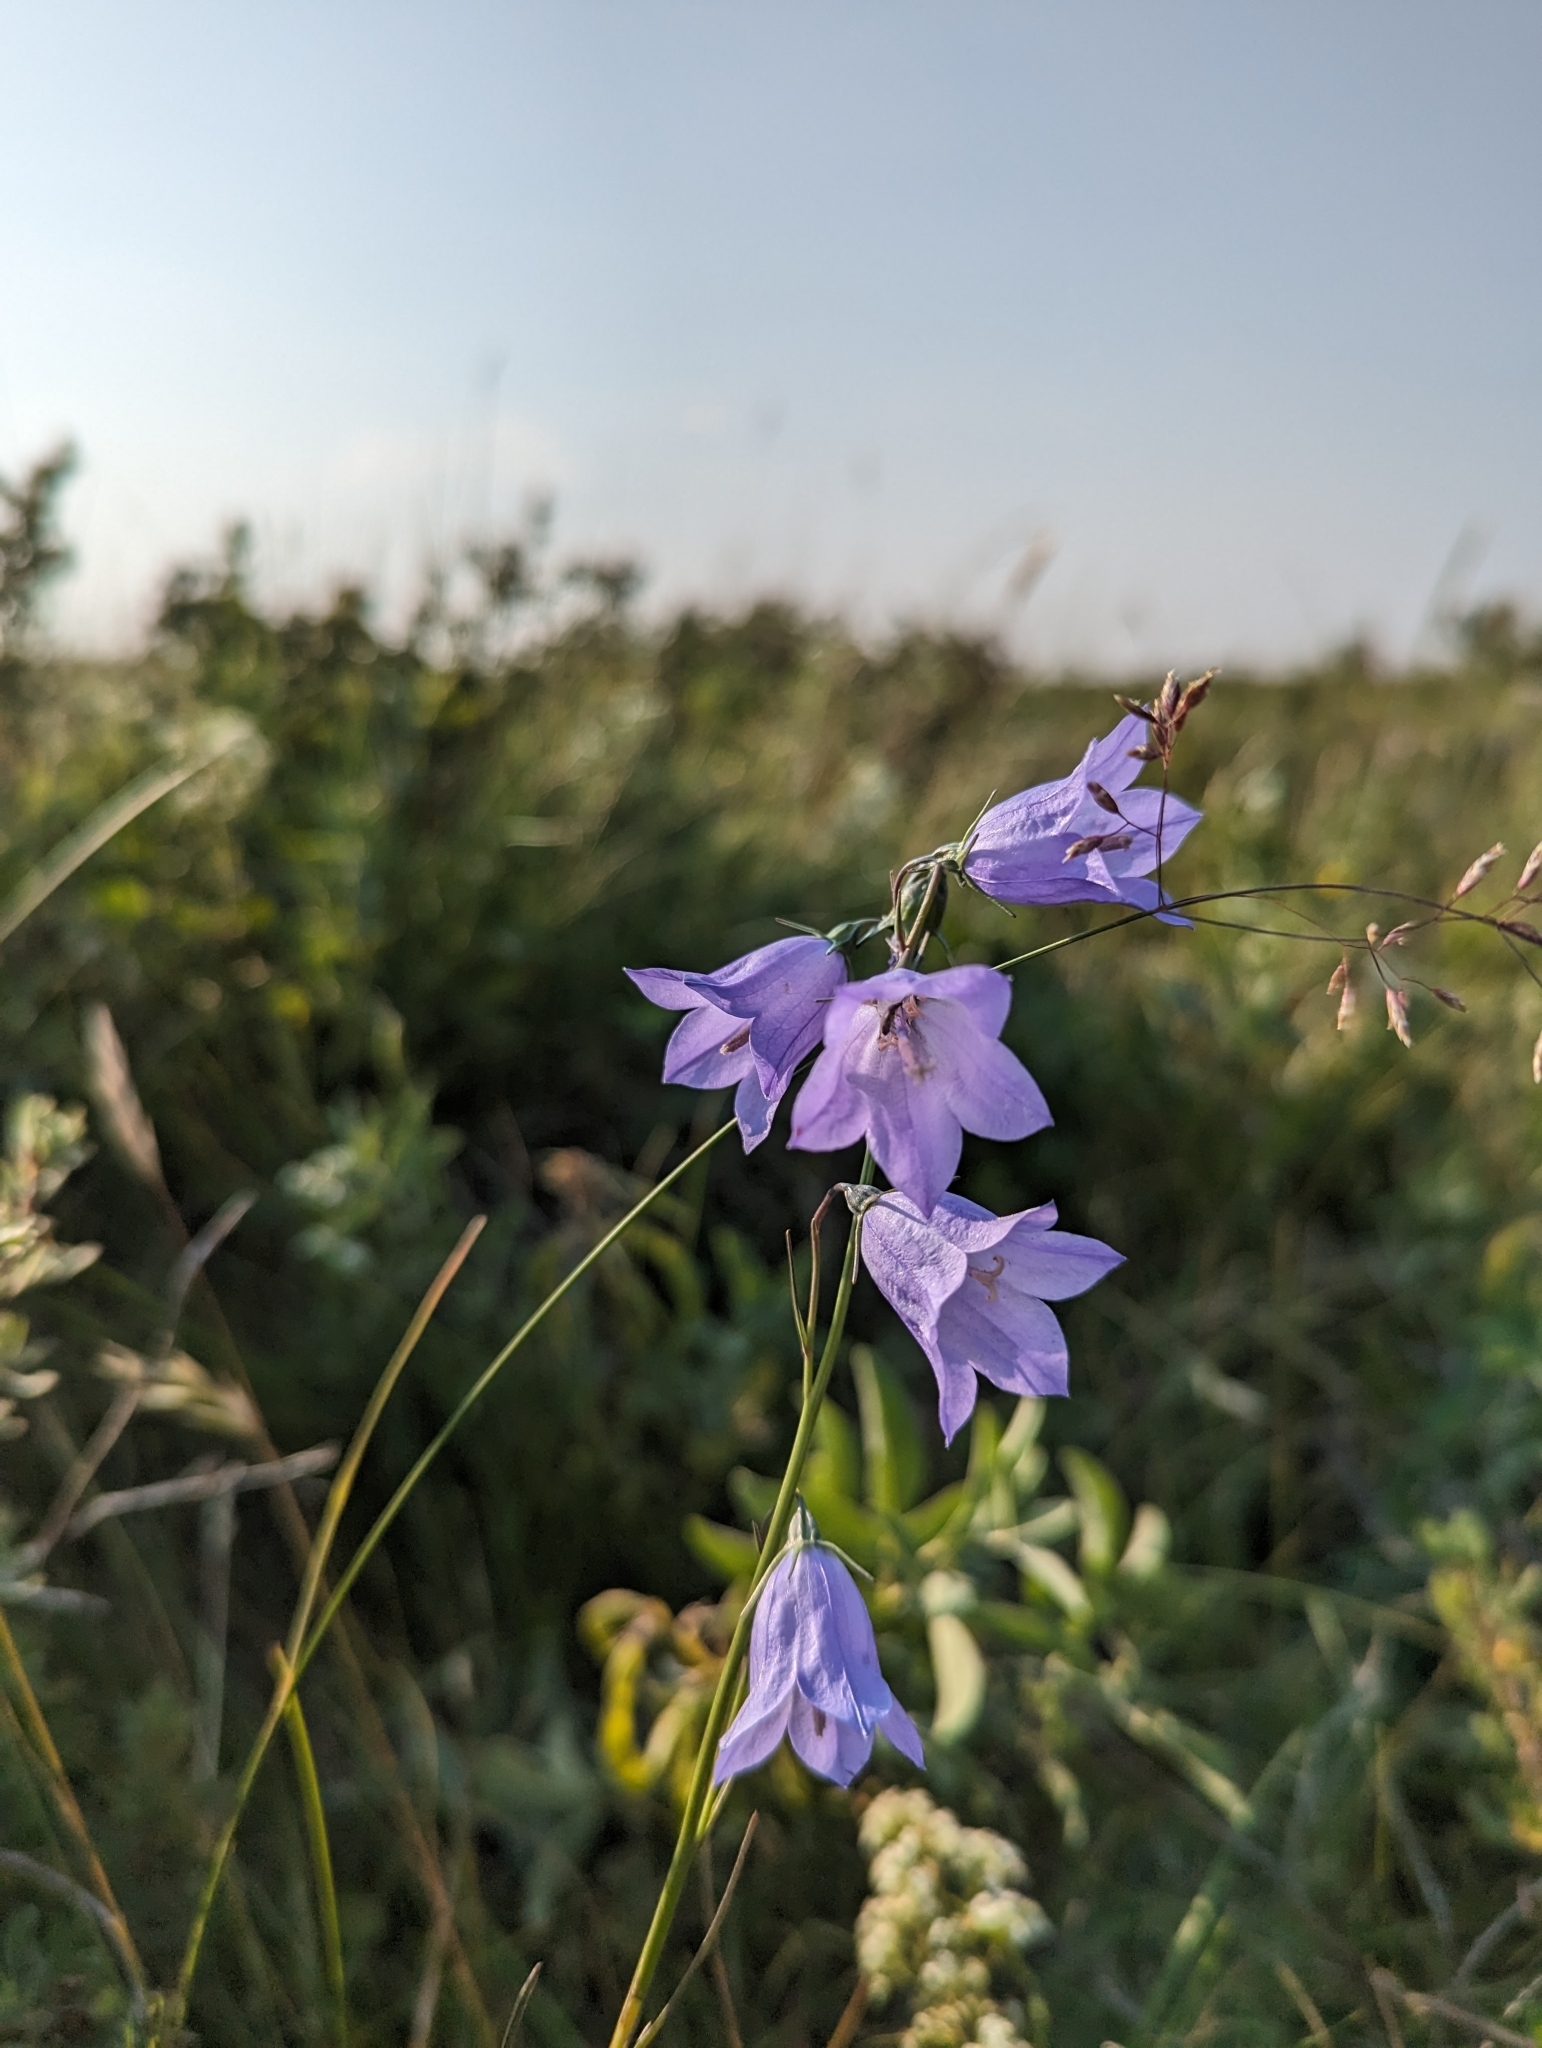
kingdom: Plantae
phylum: Tracheophyta
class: Magnoliopsida
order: Asterales
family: Campanulaceae
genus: Campanula
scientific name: Campanula alaskana
